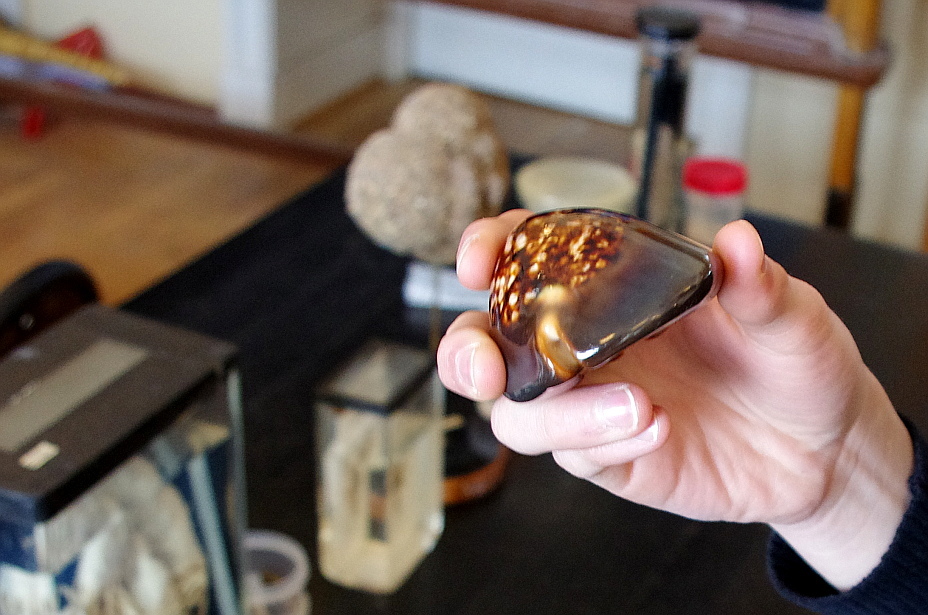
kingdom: Animalia
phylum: Mollusca
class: Gastropoda
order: Littorinimorpha
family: Cypraeidae
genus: Mauritia
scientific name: Mauritia mauritiana
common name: Hump-backed cowrie
